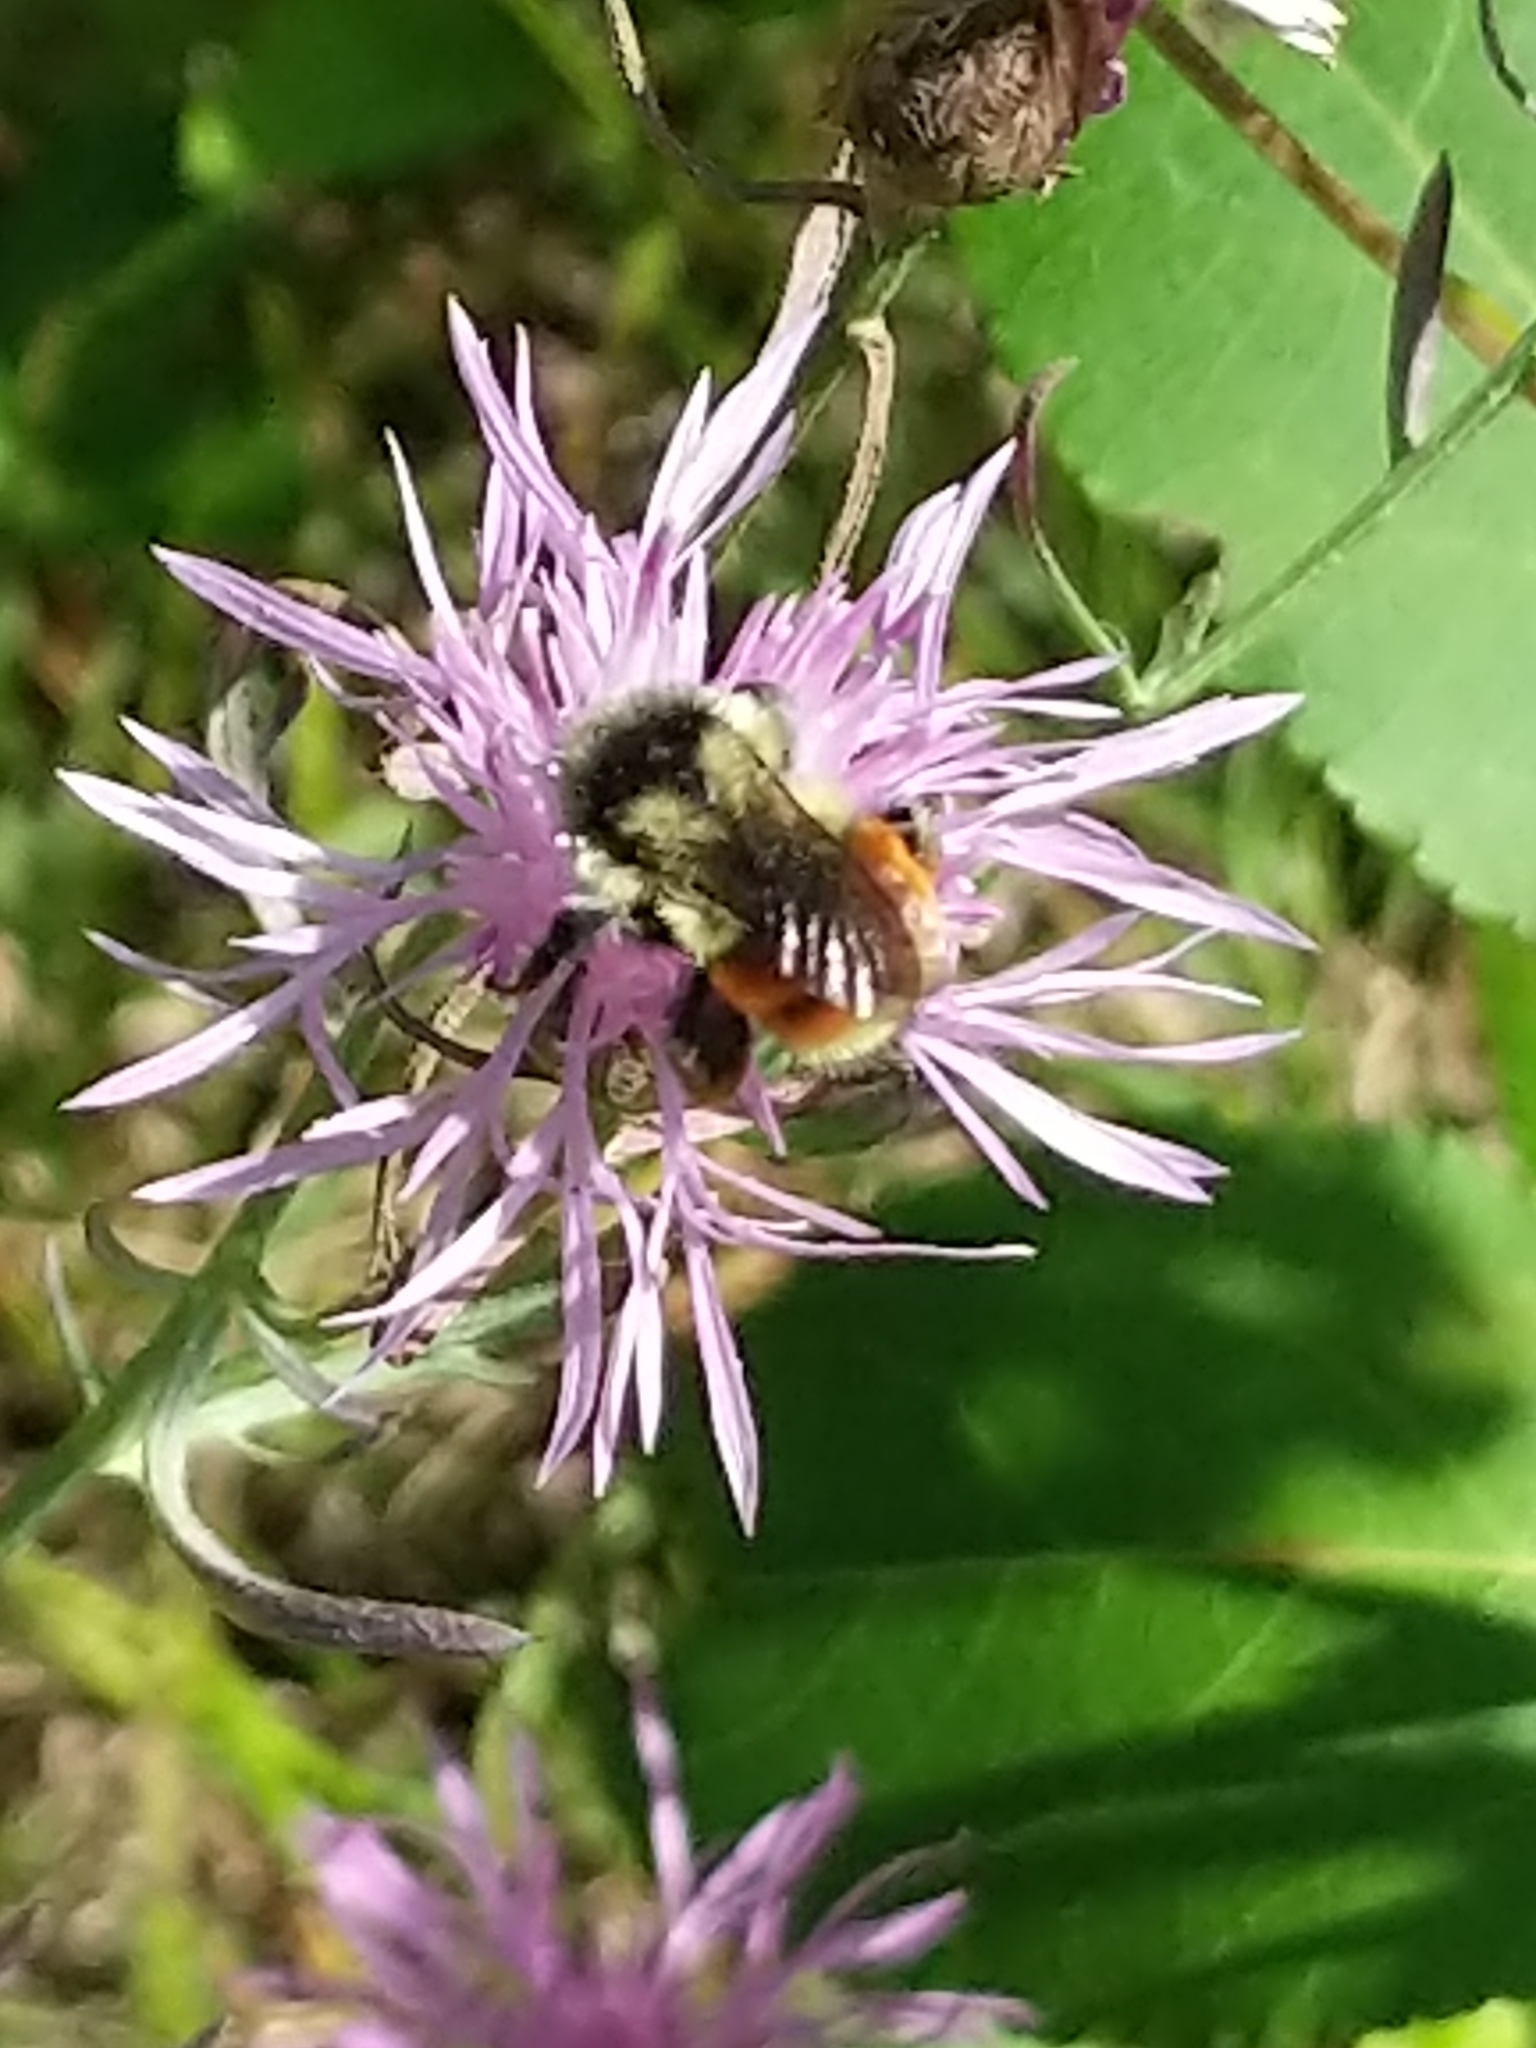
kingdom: Animalia
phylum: Arthropoda
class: Insecta
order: Hymenoptera
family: Apidae
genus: Bombus
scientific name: Bombus ternarius
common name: Tri-colored bumble bee
